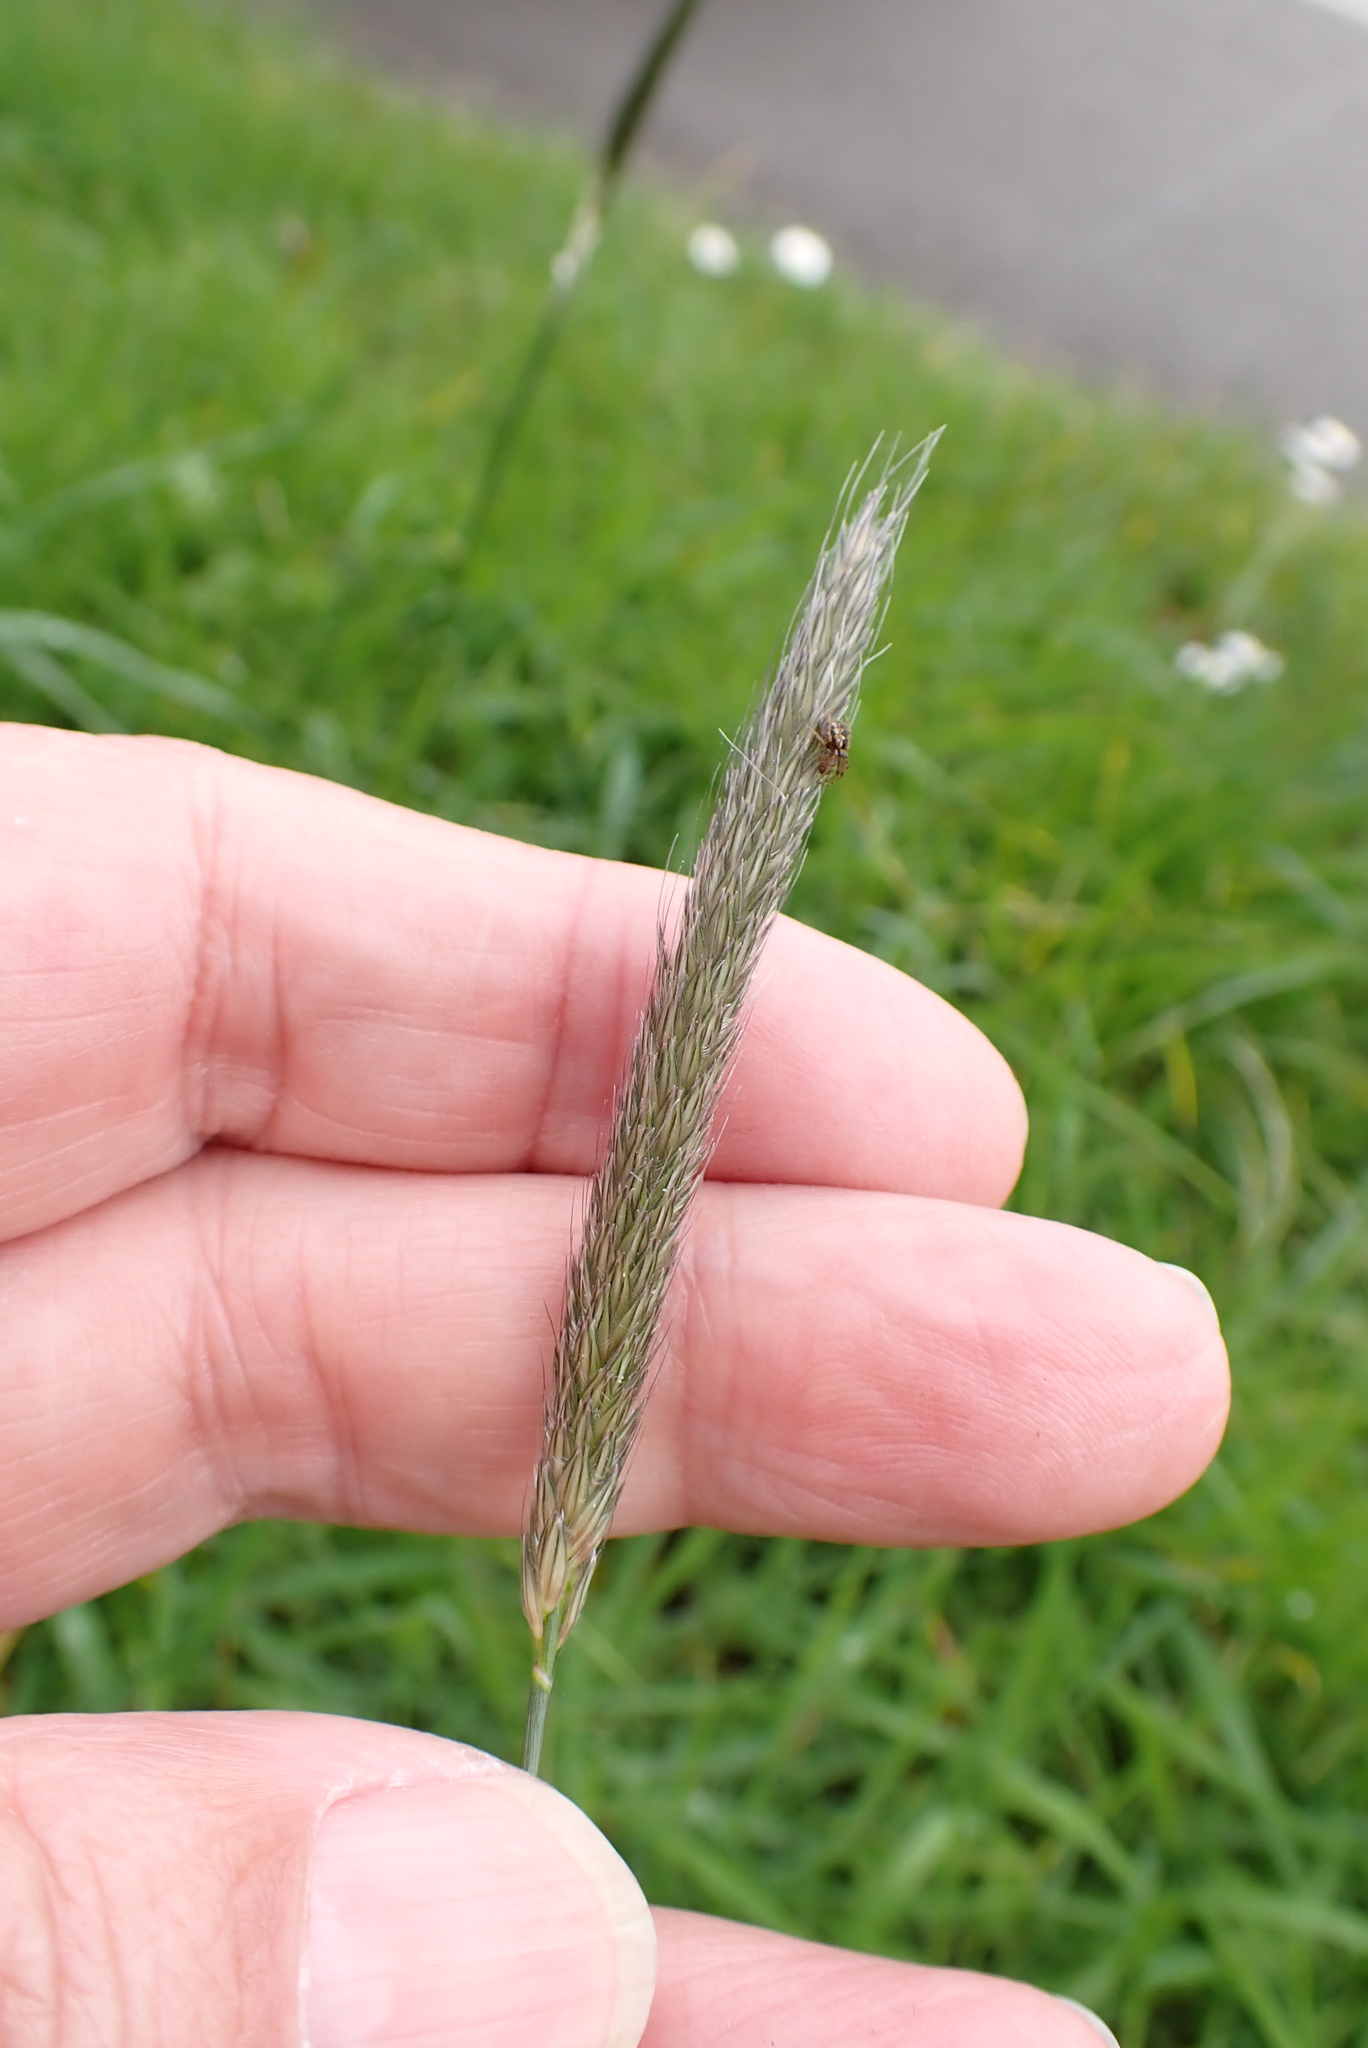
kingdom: Plantae
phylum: Tracheophyta
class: Liliopsida
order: Poales
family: Poaceae
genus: Alopecurus
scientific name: Alopecurus pratensis
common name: Meadow foxtail
